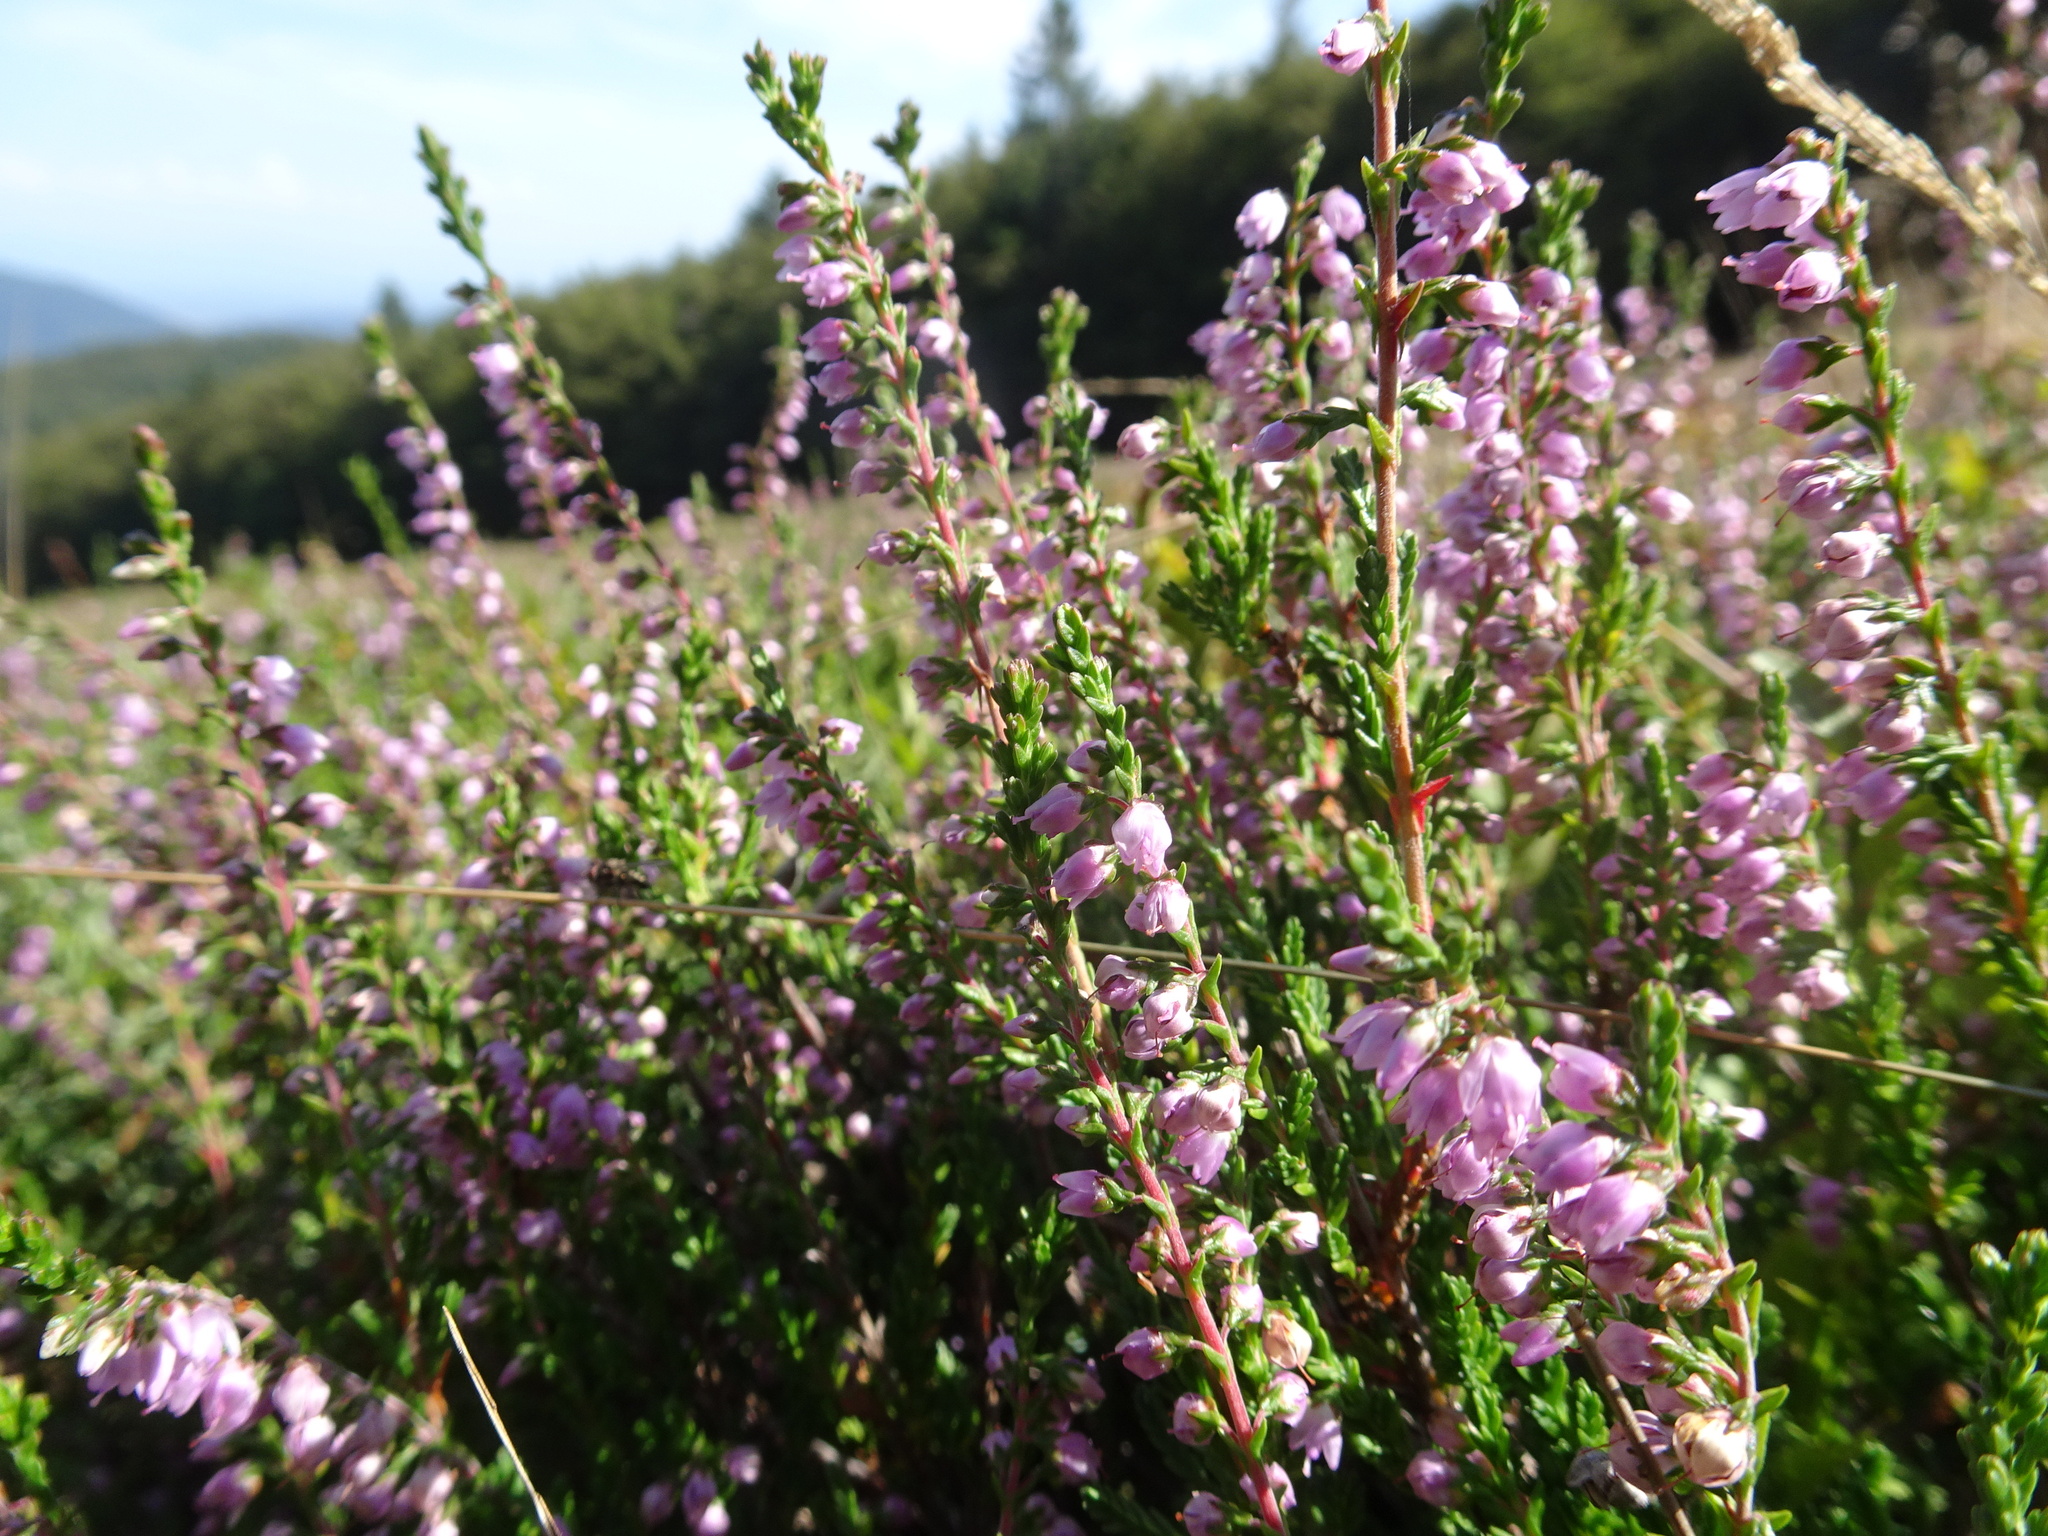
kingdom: Plantae
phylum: Tracheophyta
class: Magnoliopsida
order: Ericales
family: Ericaceae
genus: Calluna
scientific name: Calluna vulgaris
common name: Heather
